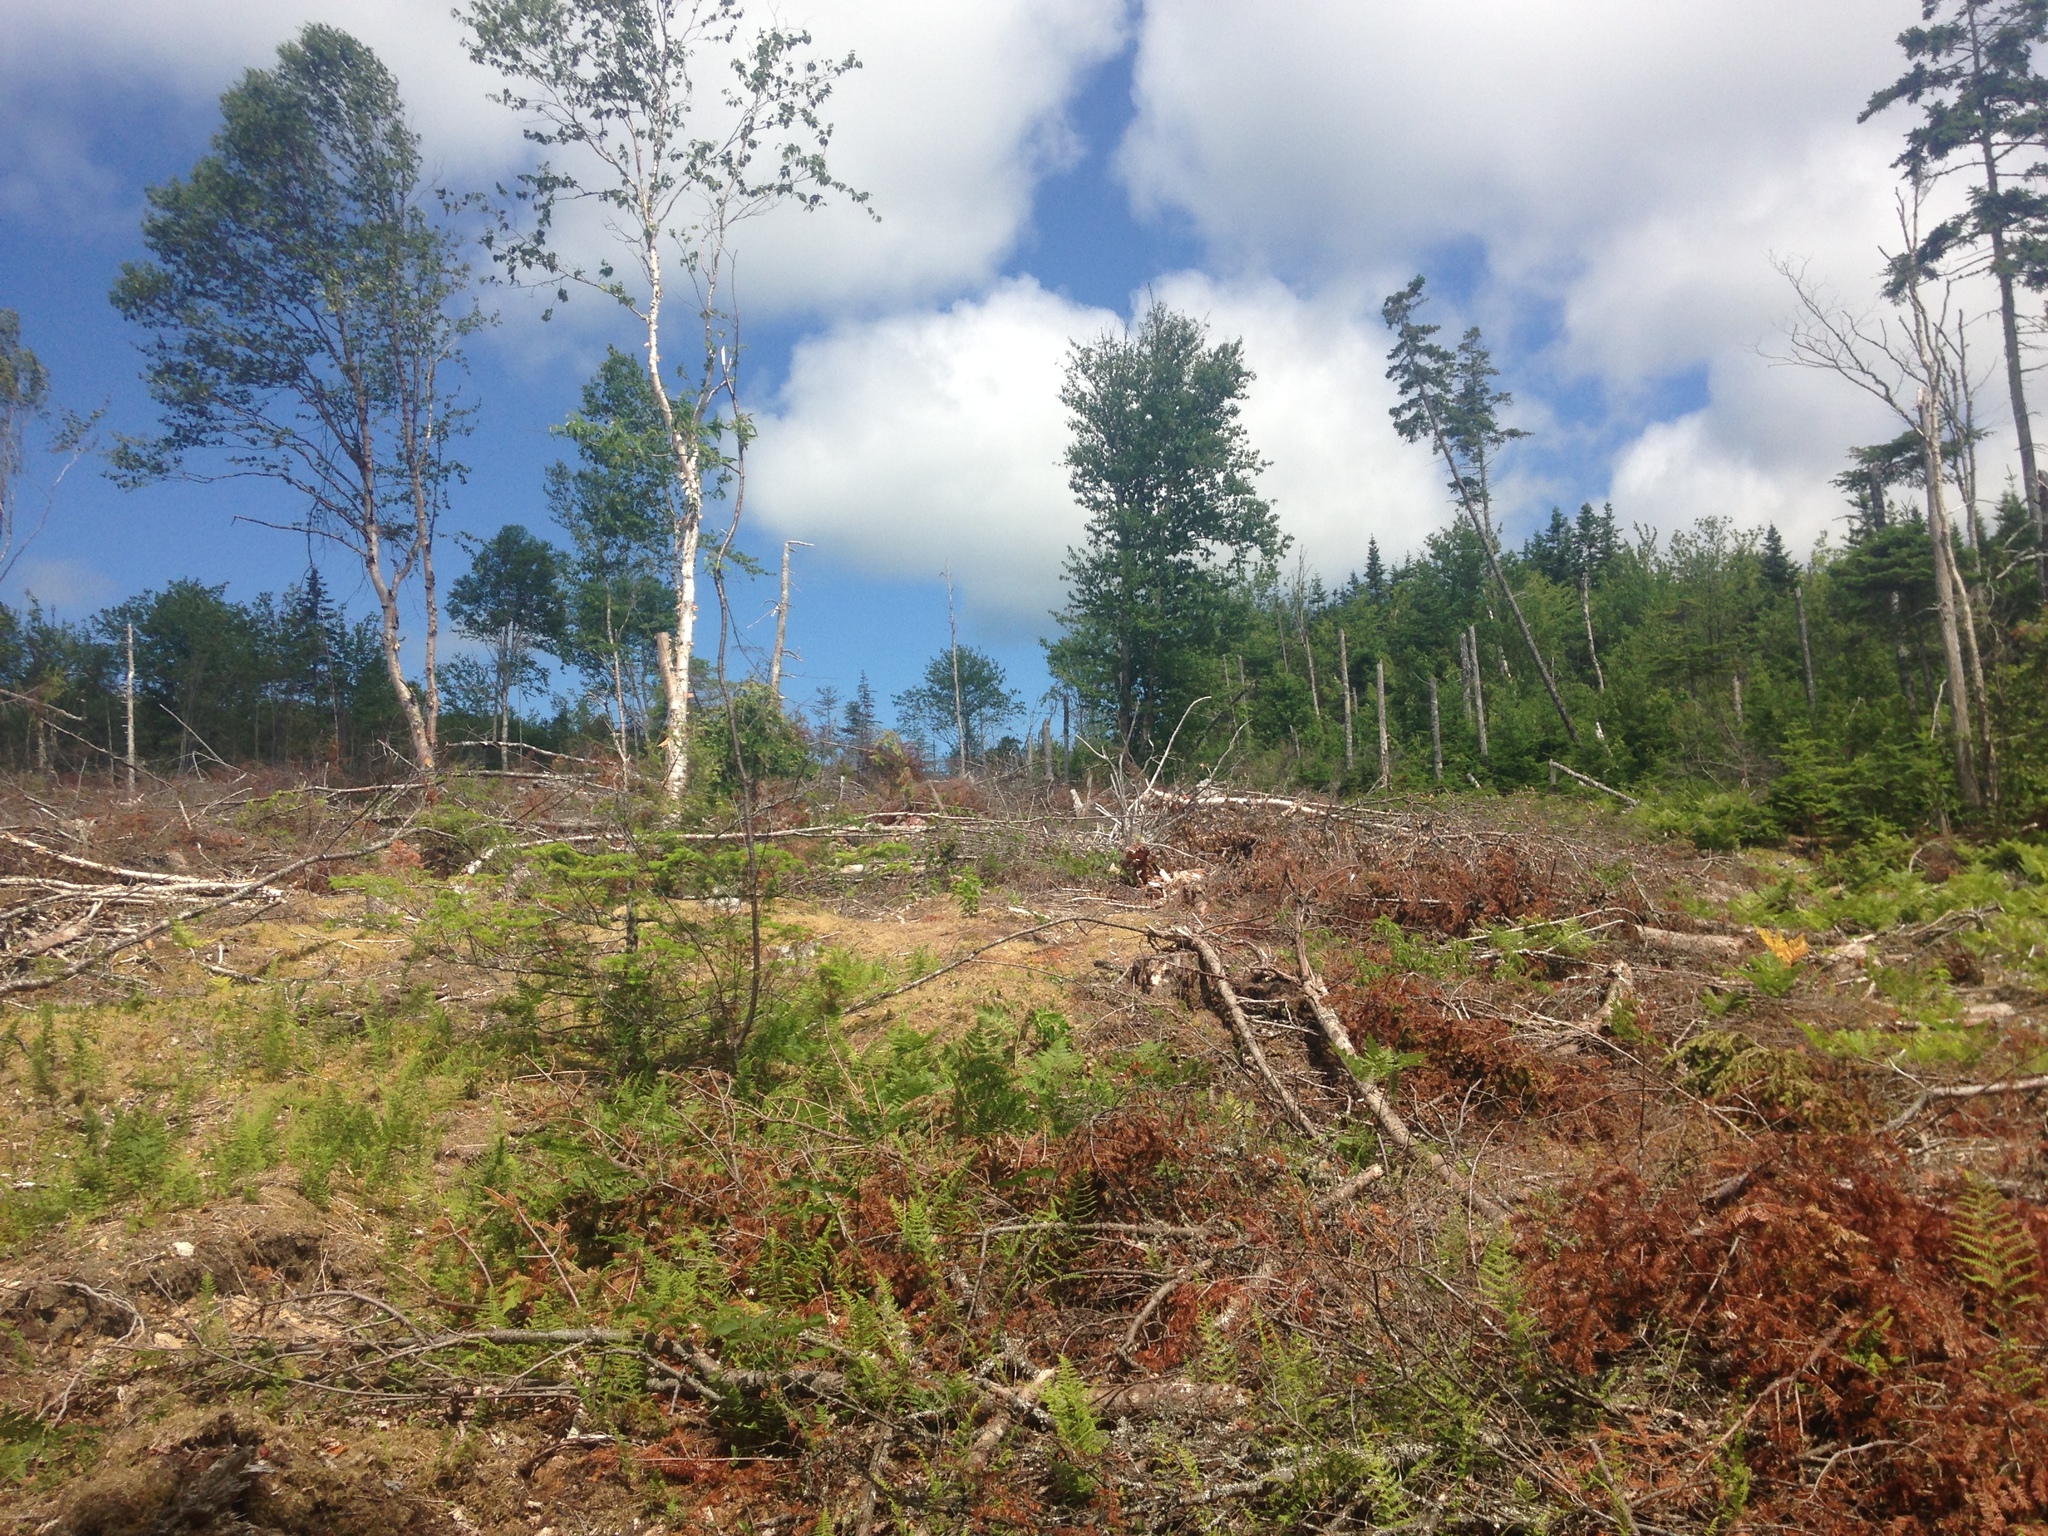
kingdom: Plantae
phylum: Tracheophyta
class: Magnoliopsida
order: Fagales
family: Betulaceae
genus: Betula
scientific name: Betula papyrifera
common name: Paper birch
